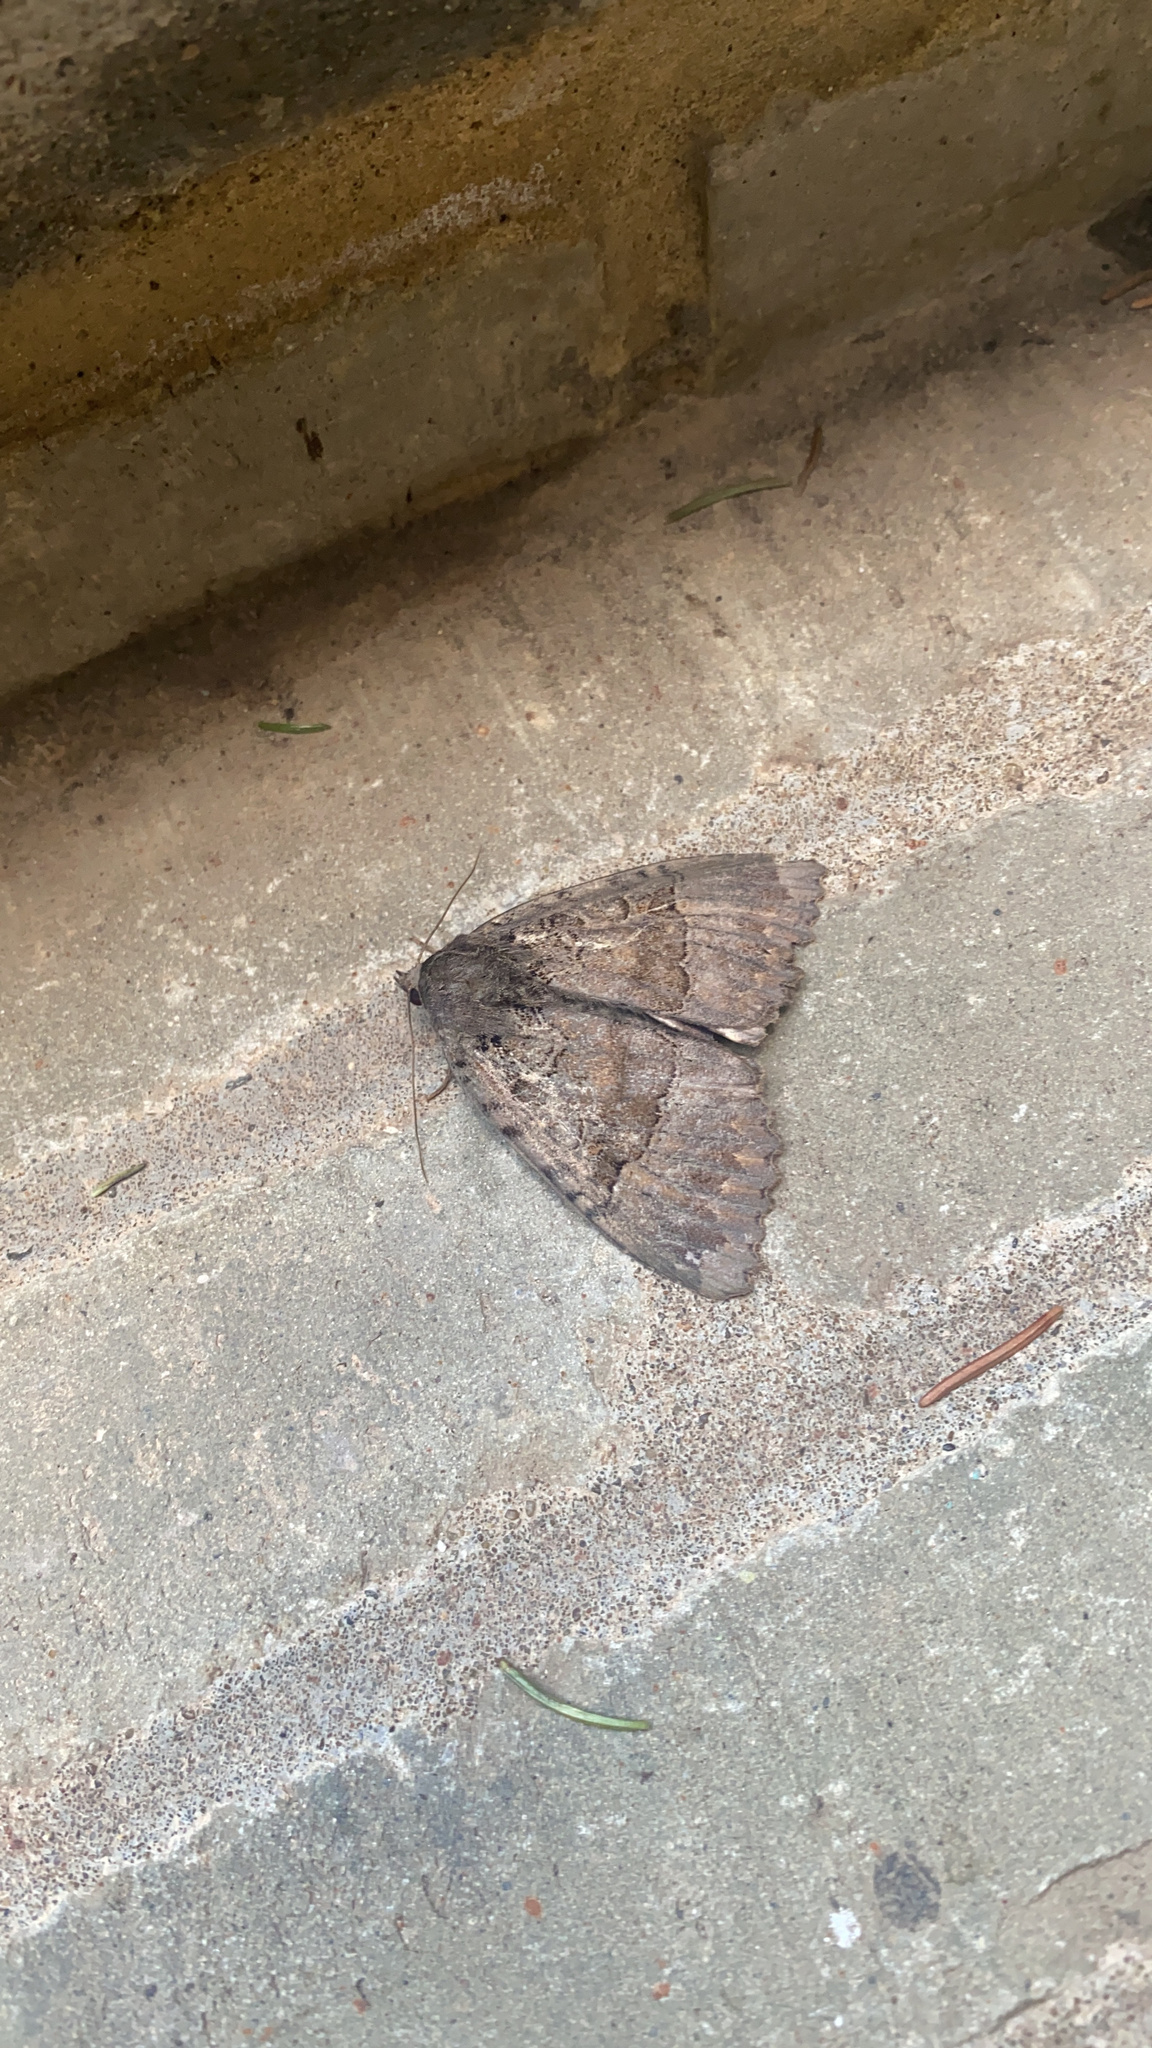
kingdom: Animalia
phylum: Arthropoda
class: Insecta
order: Lepidoptera
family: Noctuidae
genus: Mormo
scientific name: Mormo maura
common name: Old lady
